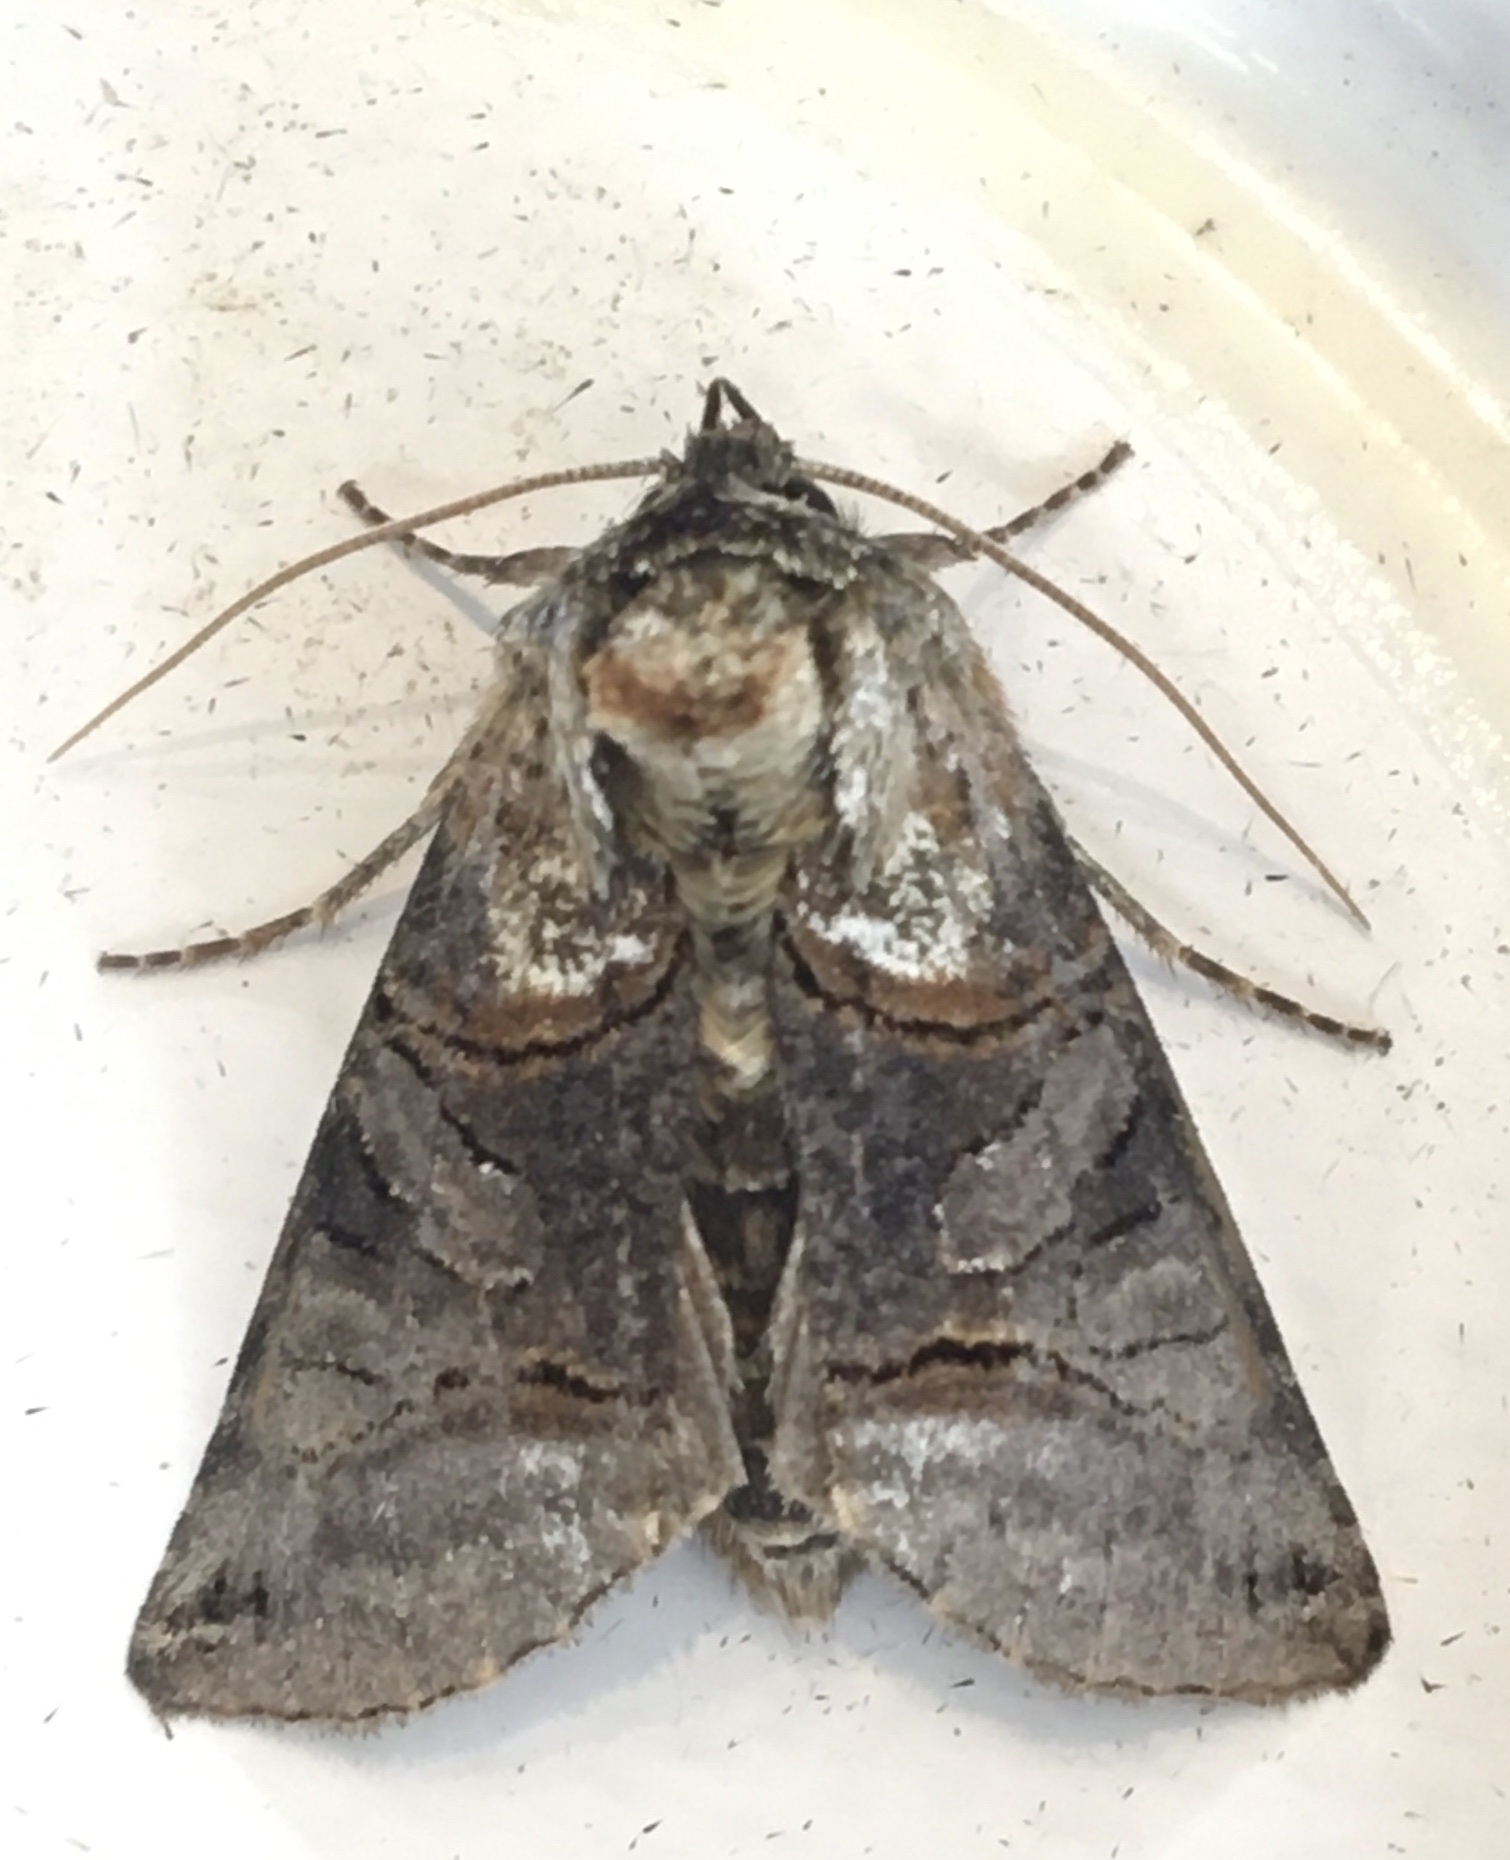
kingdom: Animalia
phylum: Arthropoda
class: Insecta
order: Lepidoptera
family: Noctuidae
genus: Abrostola
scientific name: Abrostola tripartita
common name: Spectacle
